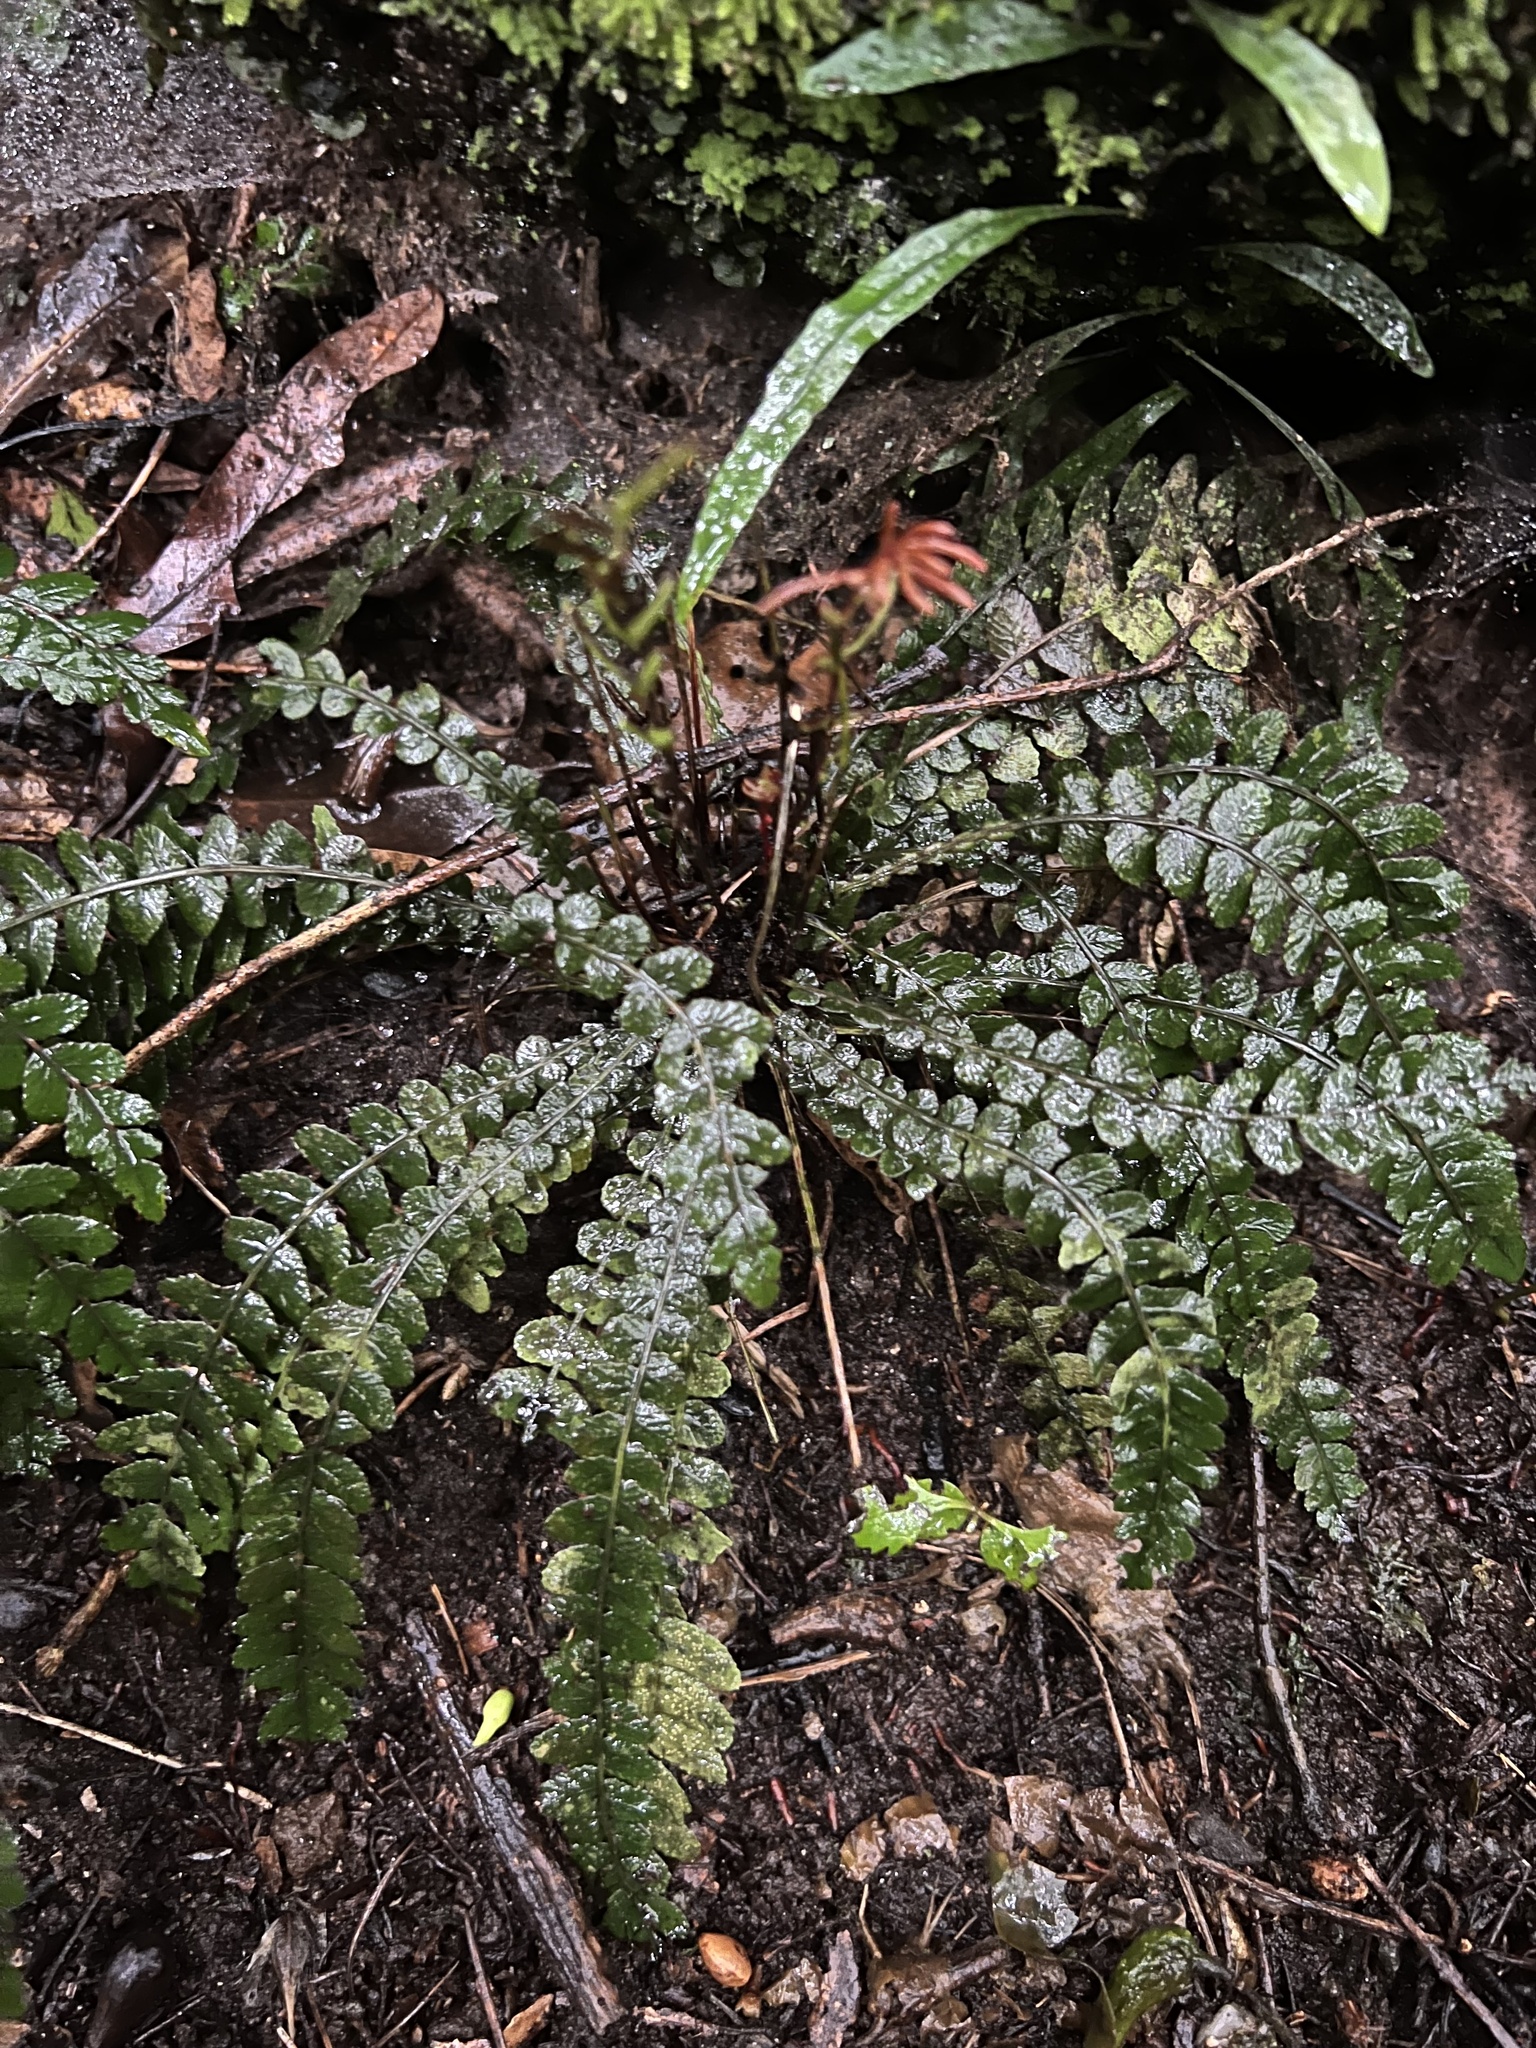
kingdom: Plantae
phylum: Tracheophyta
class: Polypodiopsida
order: Polypodiales
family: Blechnaceae
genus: Austroblechnum
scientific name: Austroblechnum membranaceum
